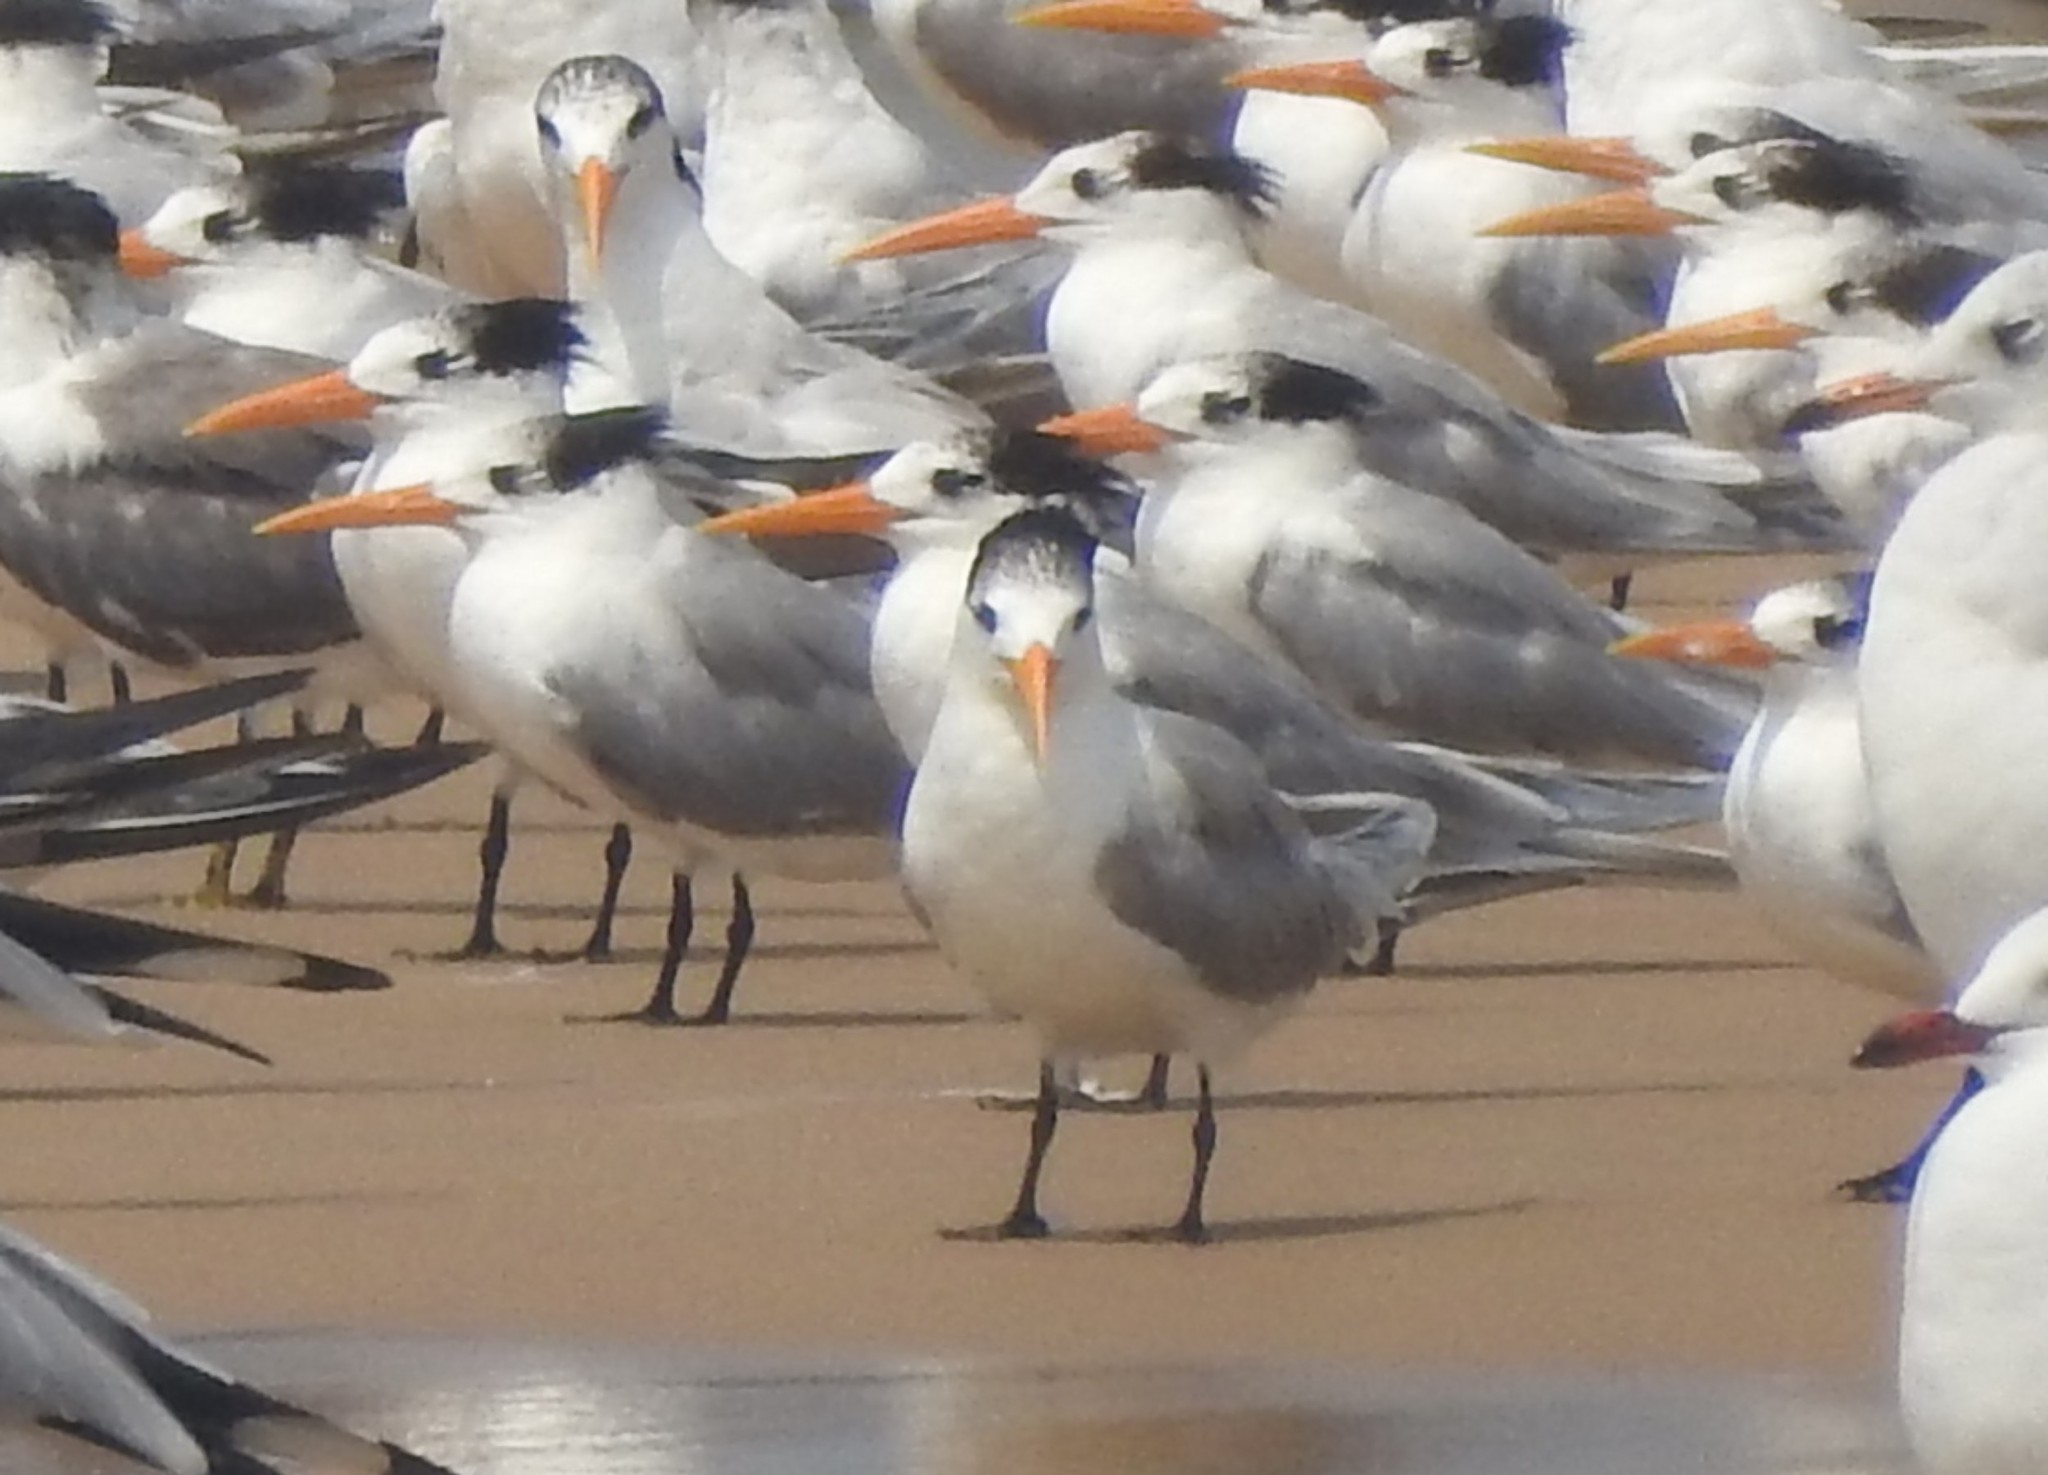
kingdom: Animalia
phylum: Chordata
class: Aves
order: Charadriiformes
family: Laridae
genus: Thalasseus
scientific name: Thalasseus bengalensis
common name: Lesser crested tern
